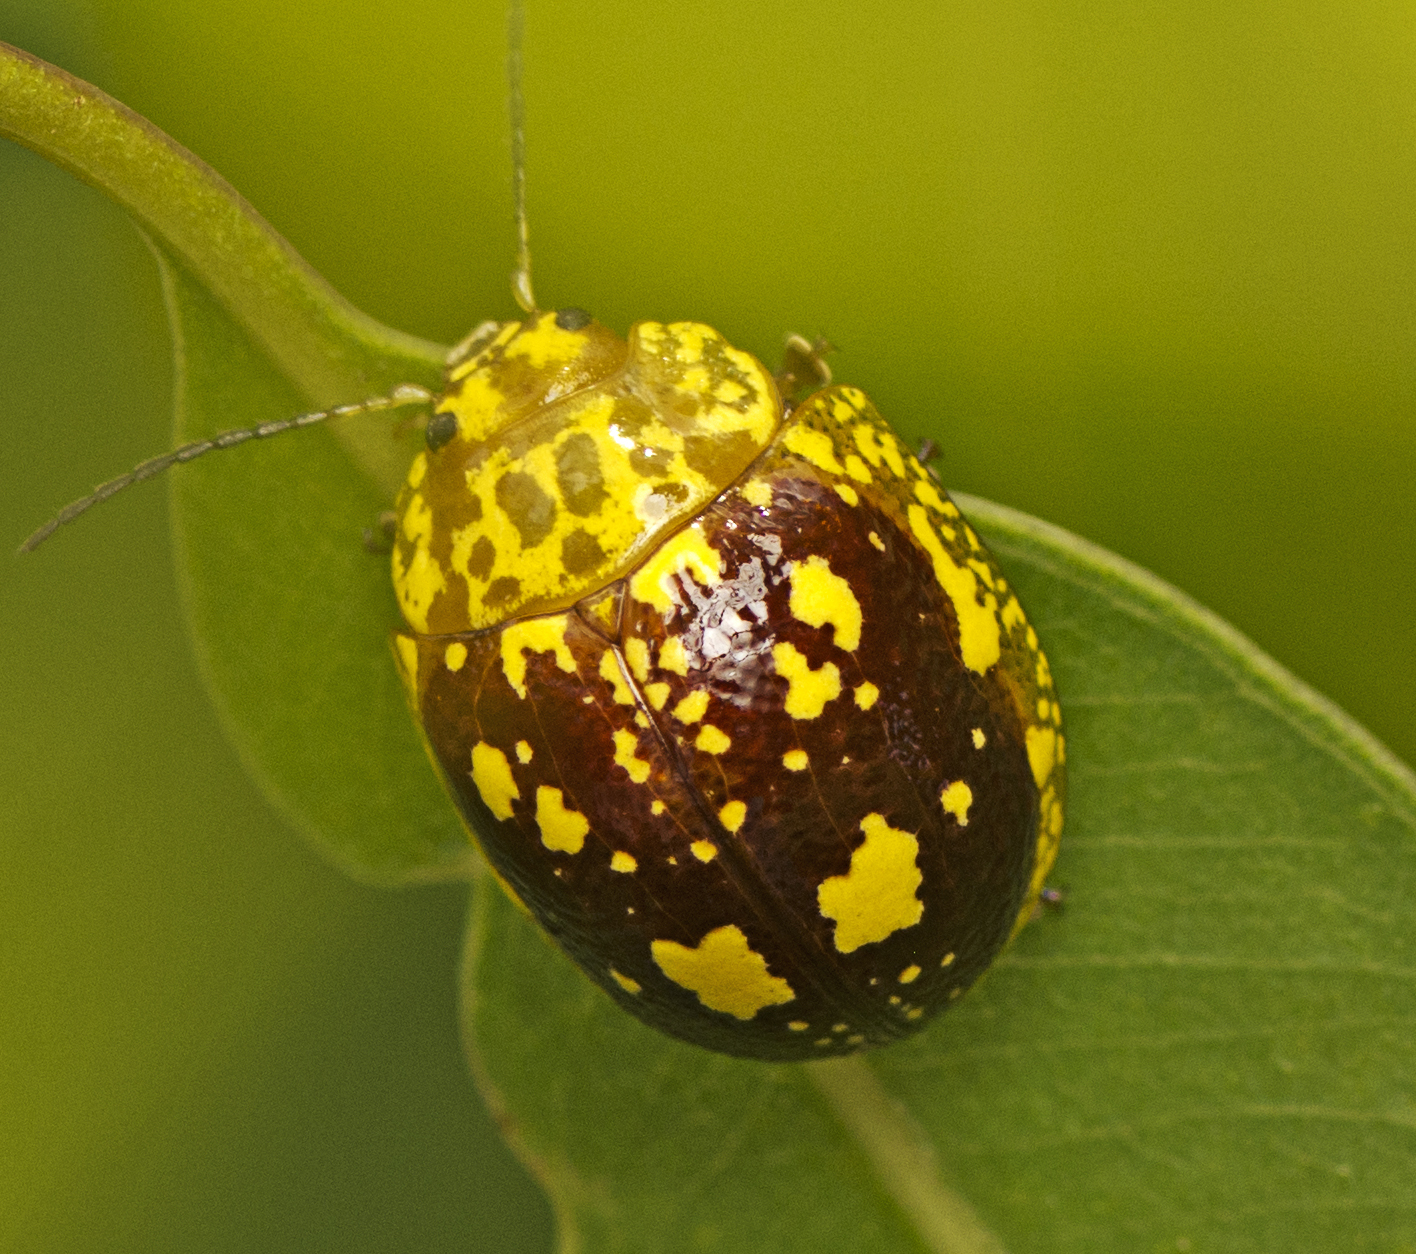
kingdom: Animalia
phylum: Arthropoda
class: Insecta
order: Coleoptera
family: Chrysomelidae
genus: Paropsis
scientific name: Paropsis maculata
